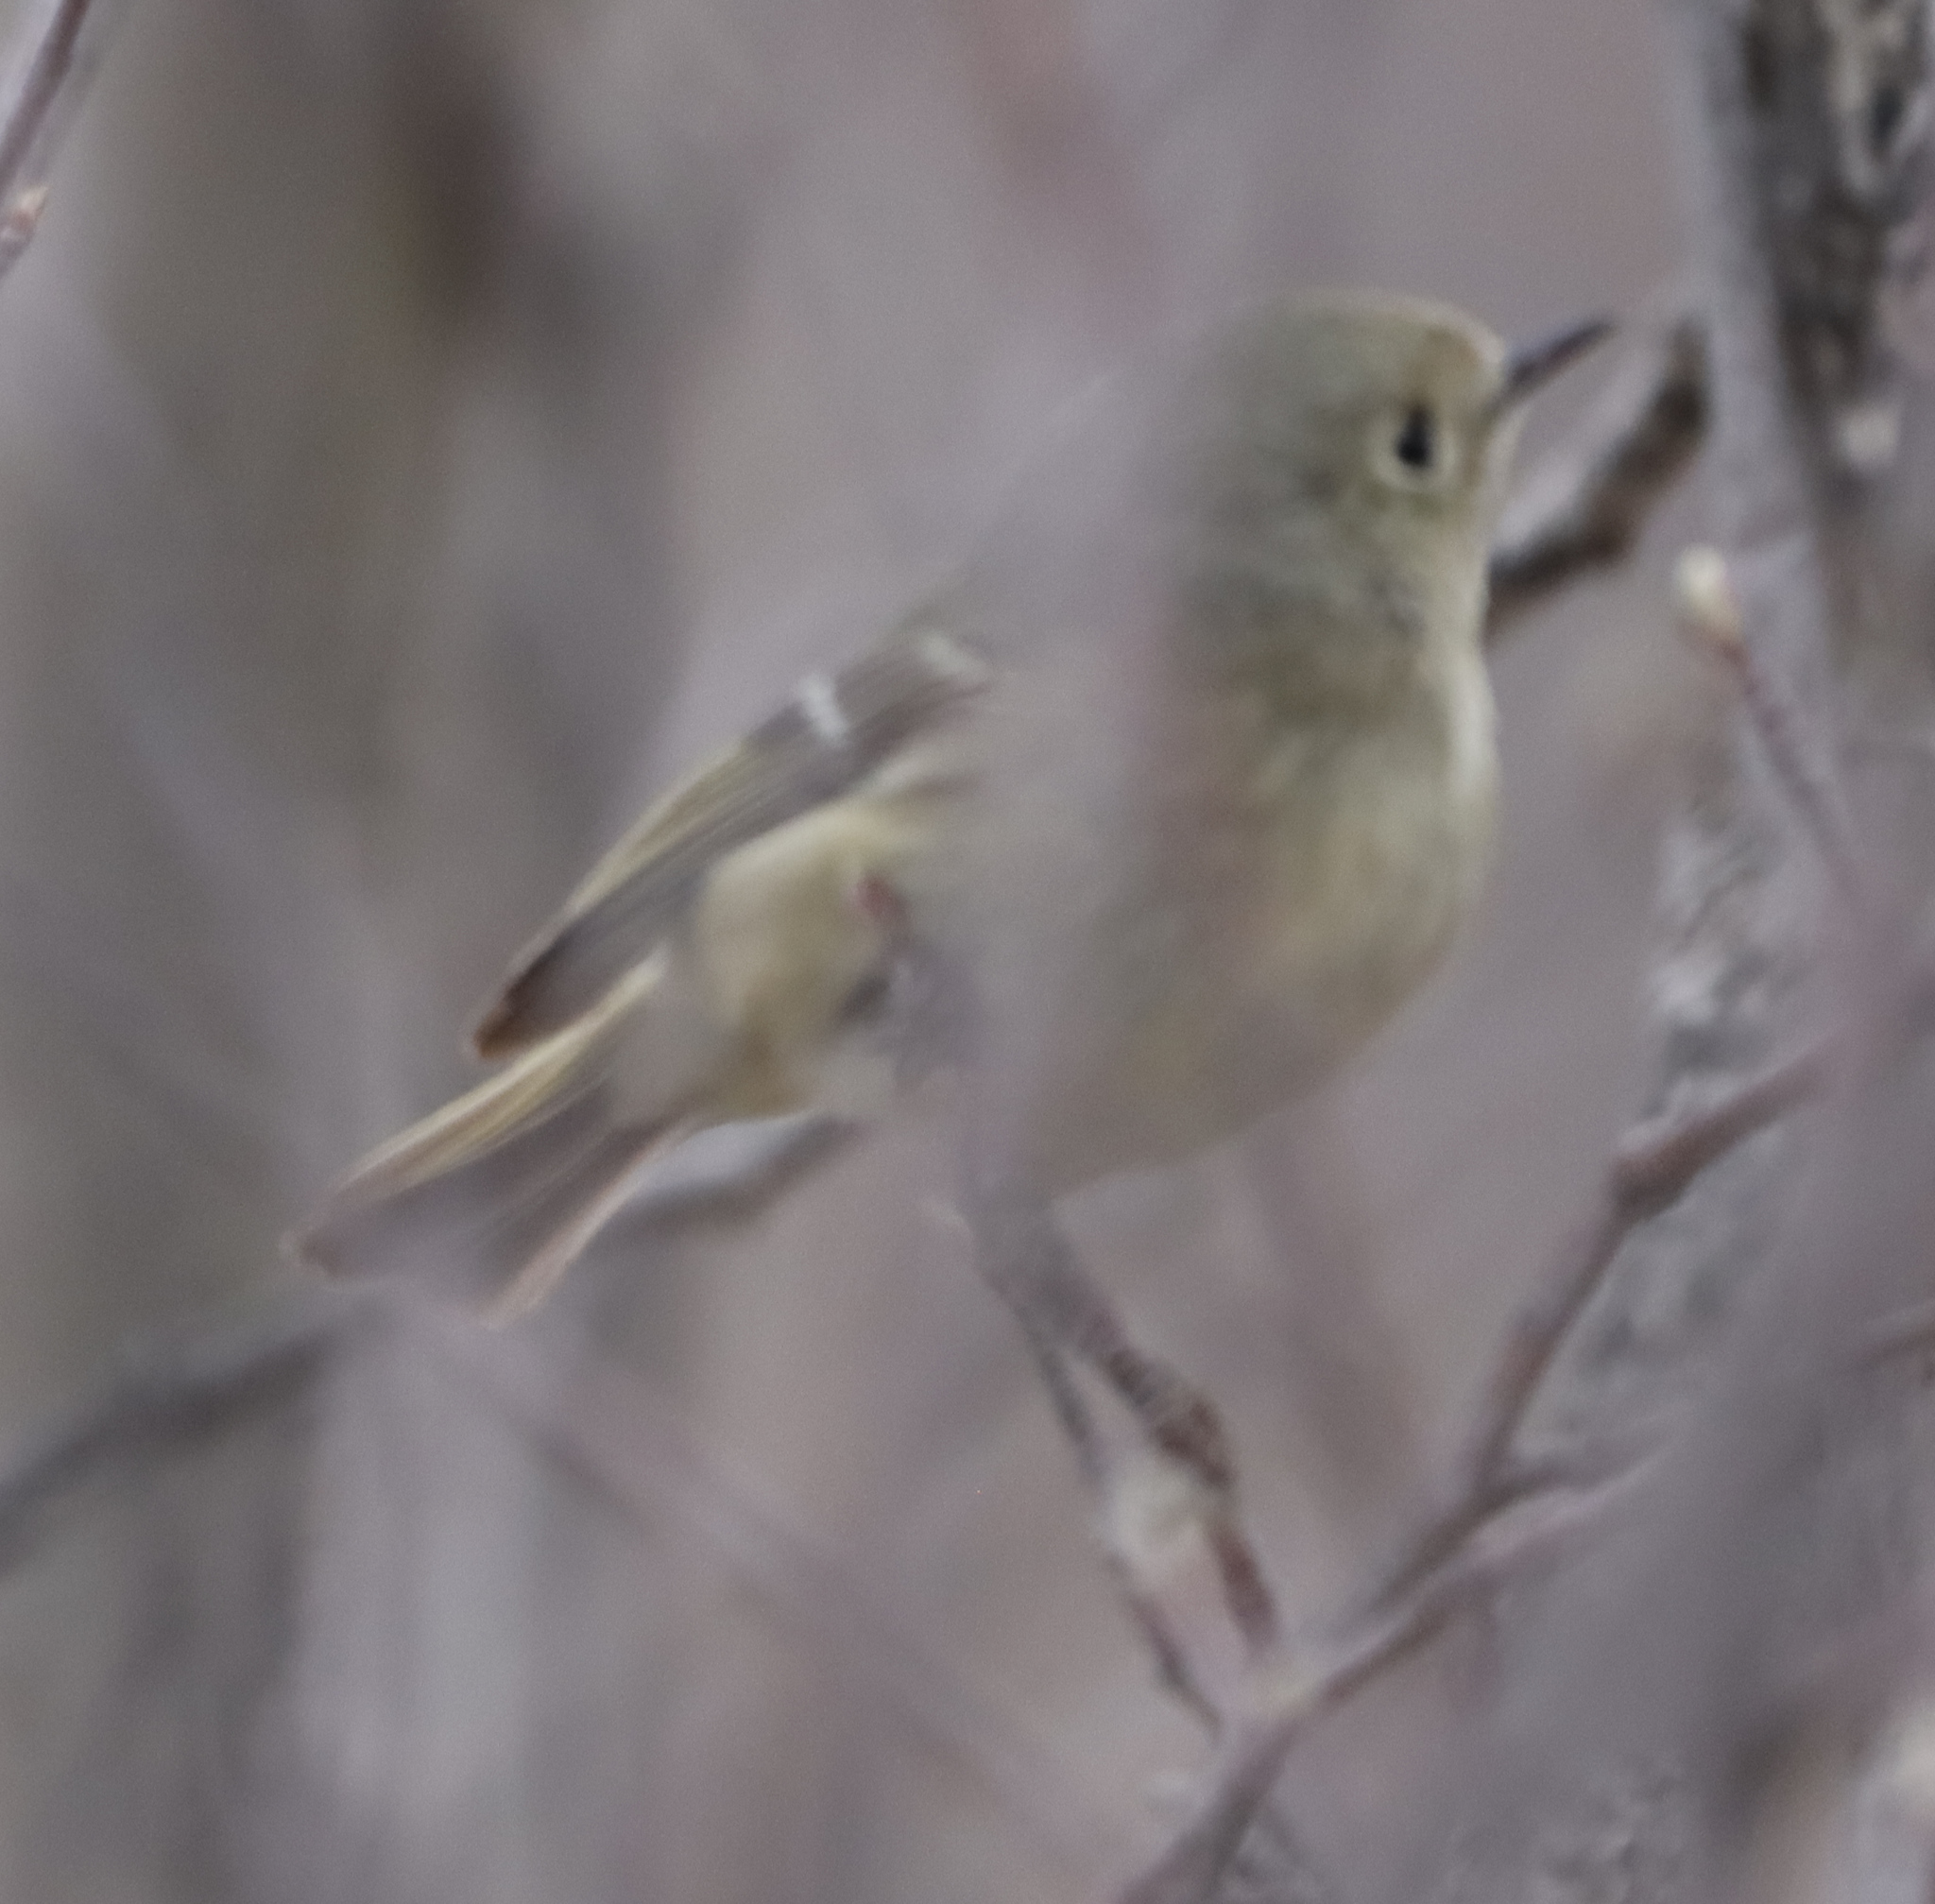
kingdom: Animalia
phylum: Chordata
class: Aves
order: Passeriformes
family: Regulidae
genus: Regulus
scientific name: Regulus calendula
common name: Ruby-crowned kinglet
